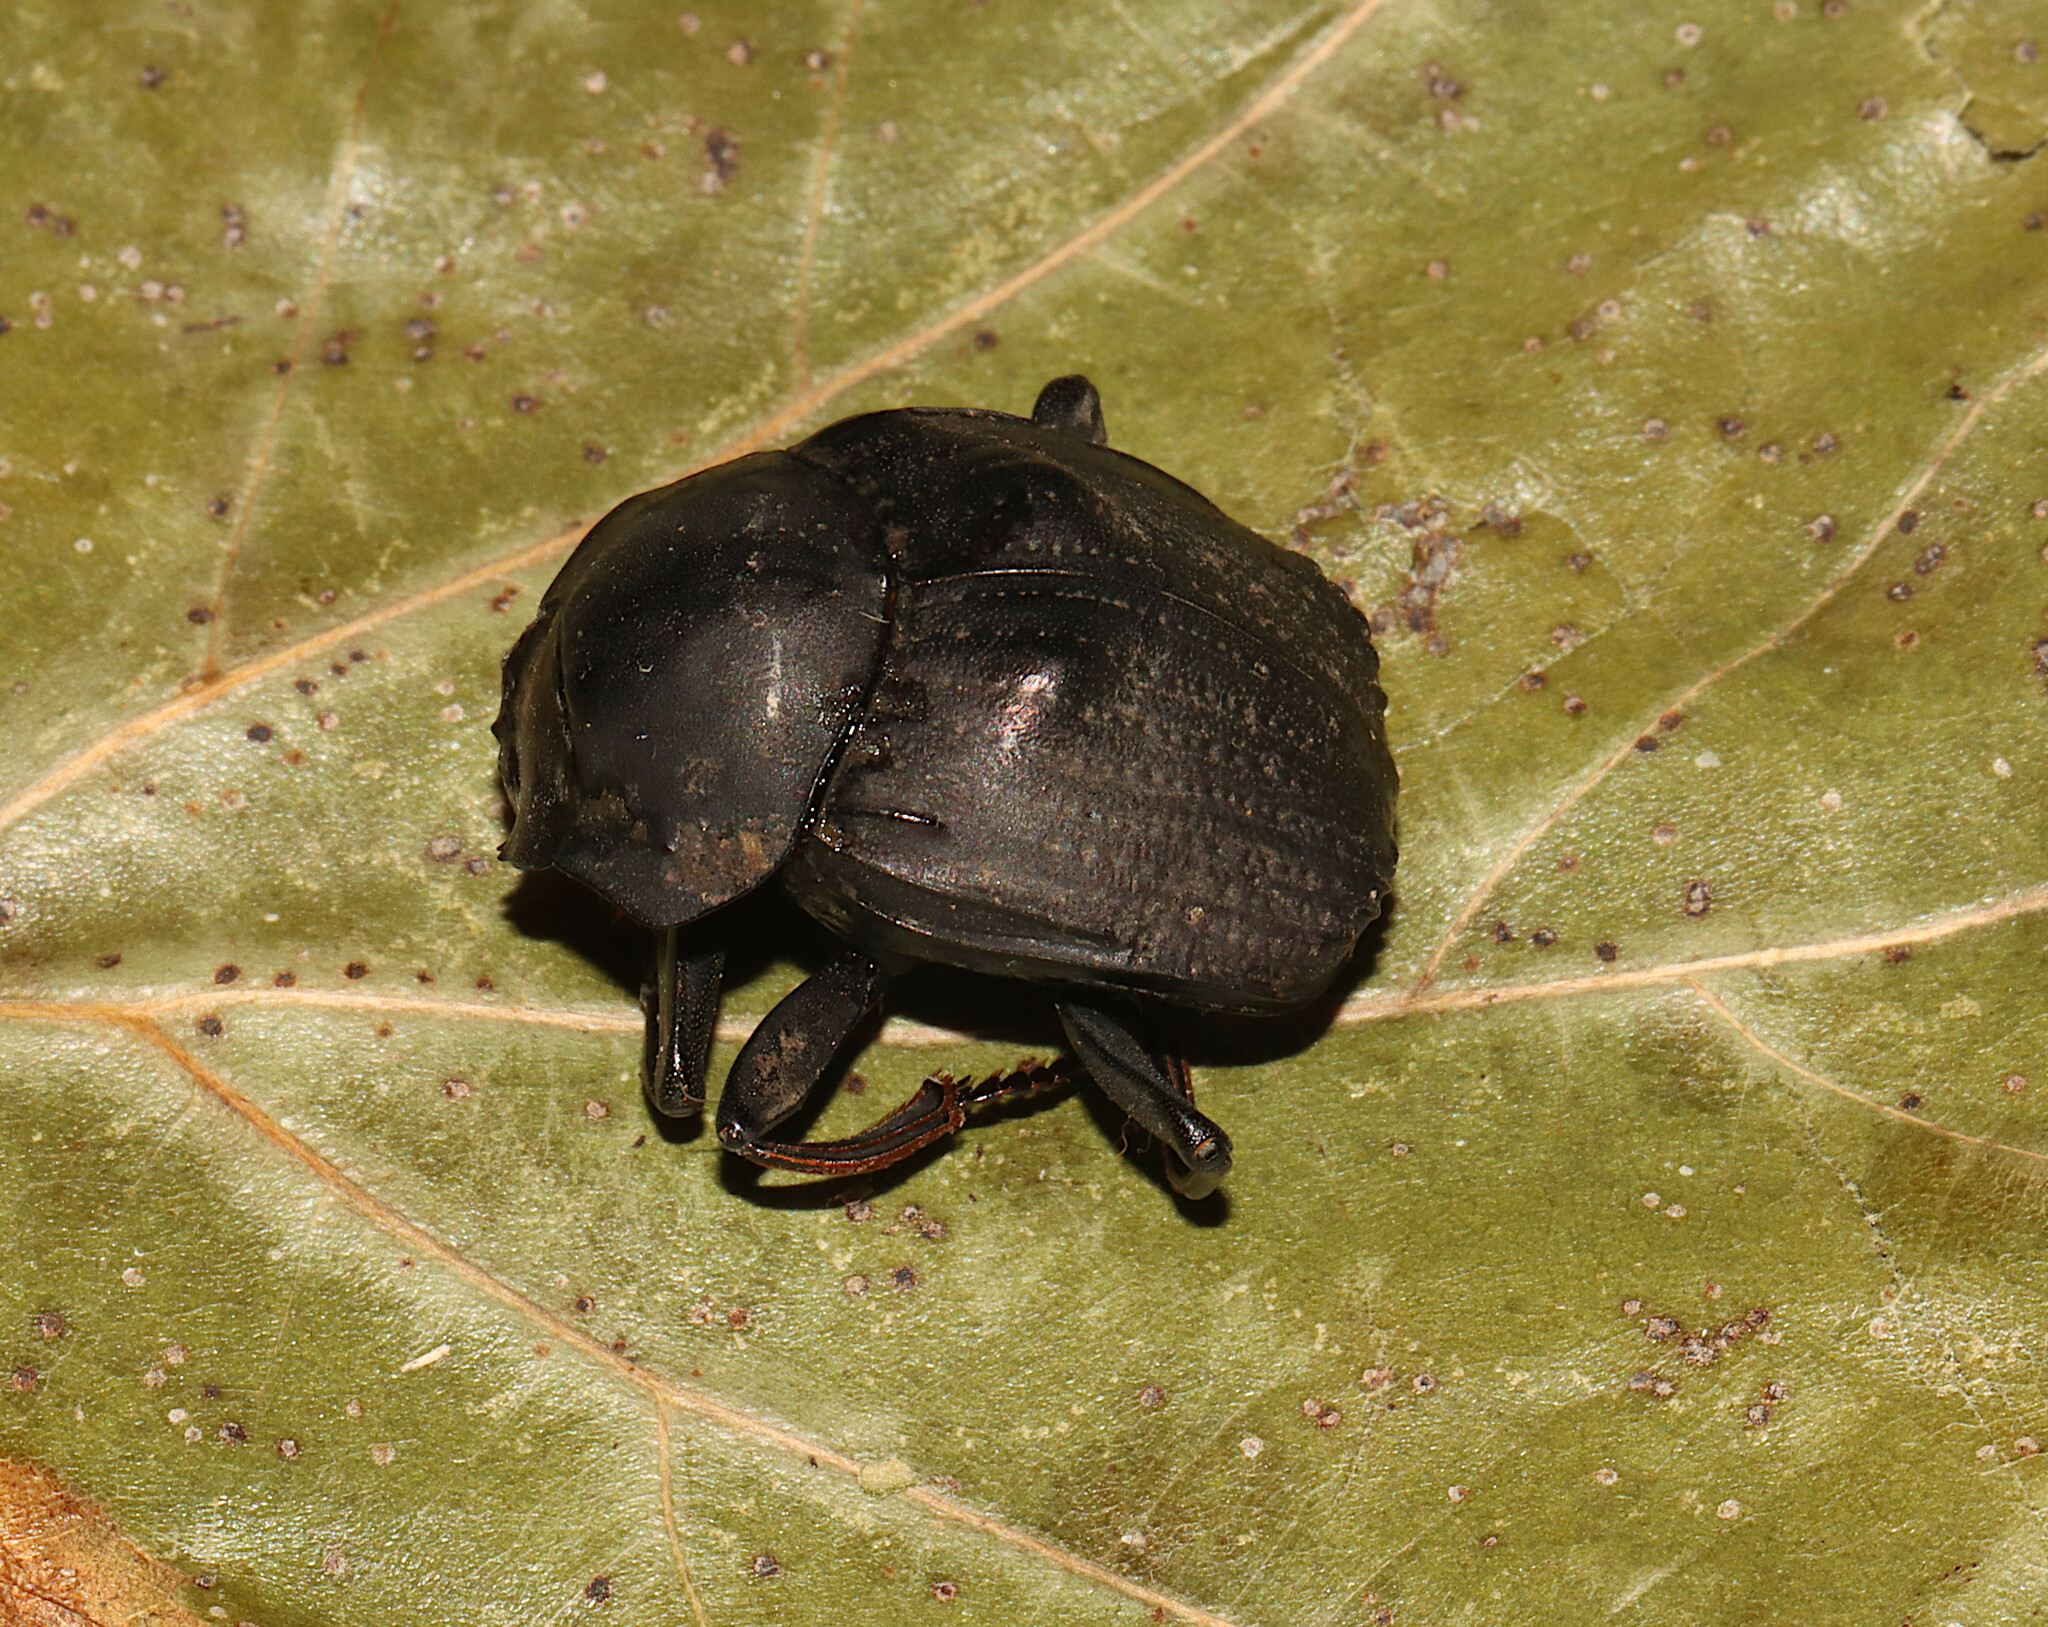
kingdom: Animalia
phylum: Arthropoda
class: Insecta
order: Coleoptera
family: Scarabaeidae
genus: Deltochilum
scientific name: Deltochilum gibbosum
